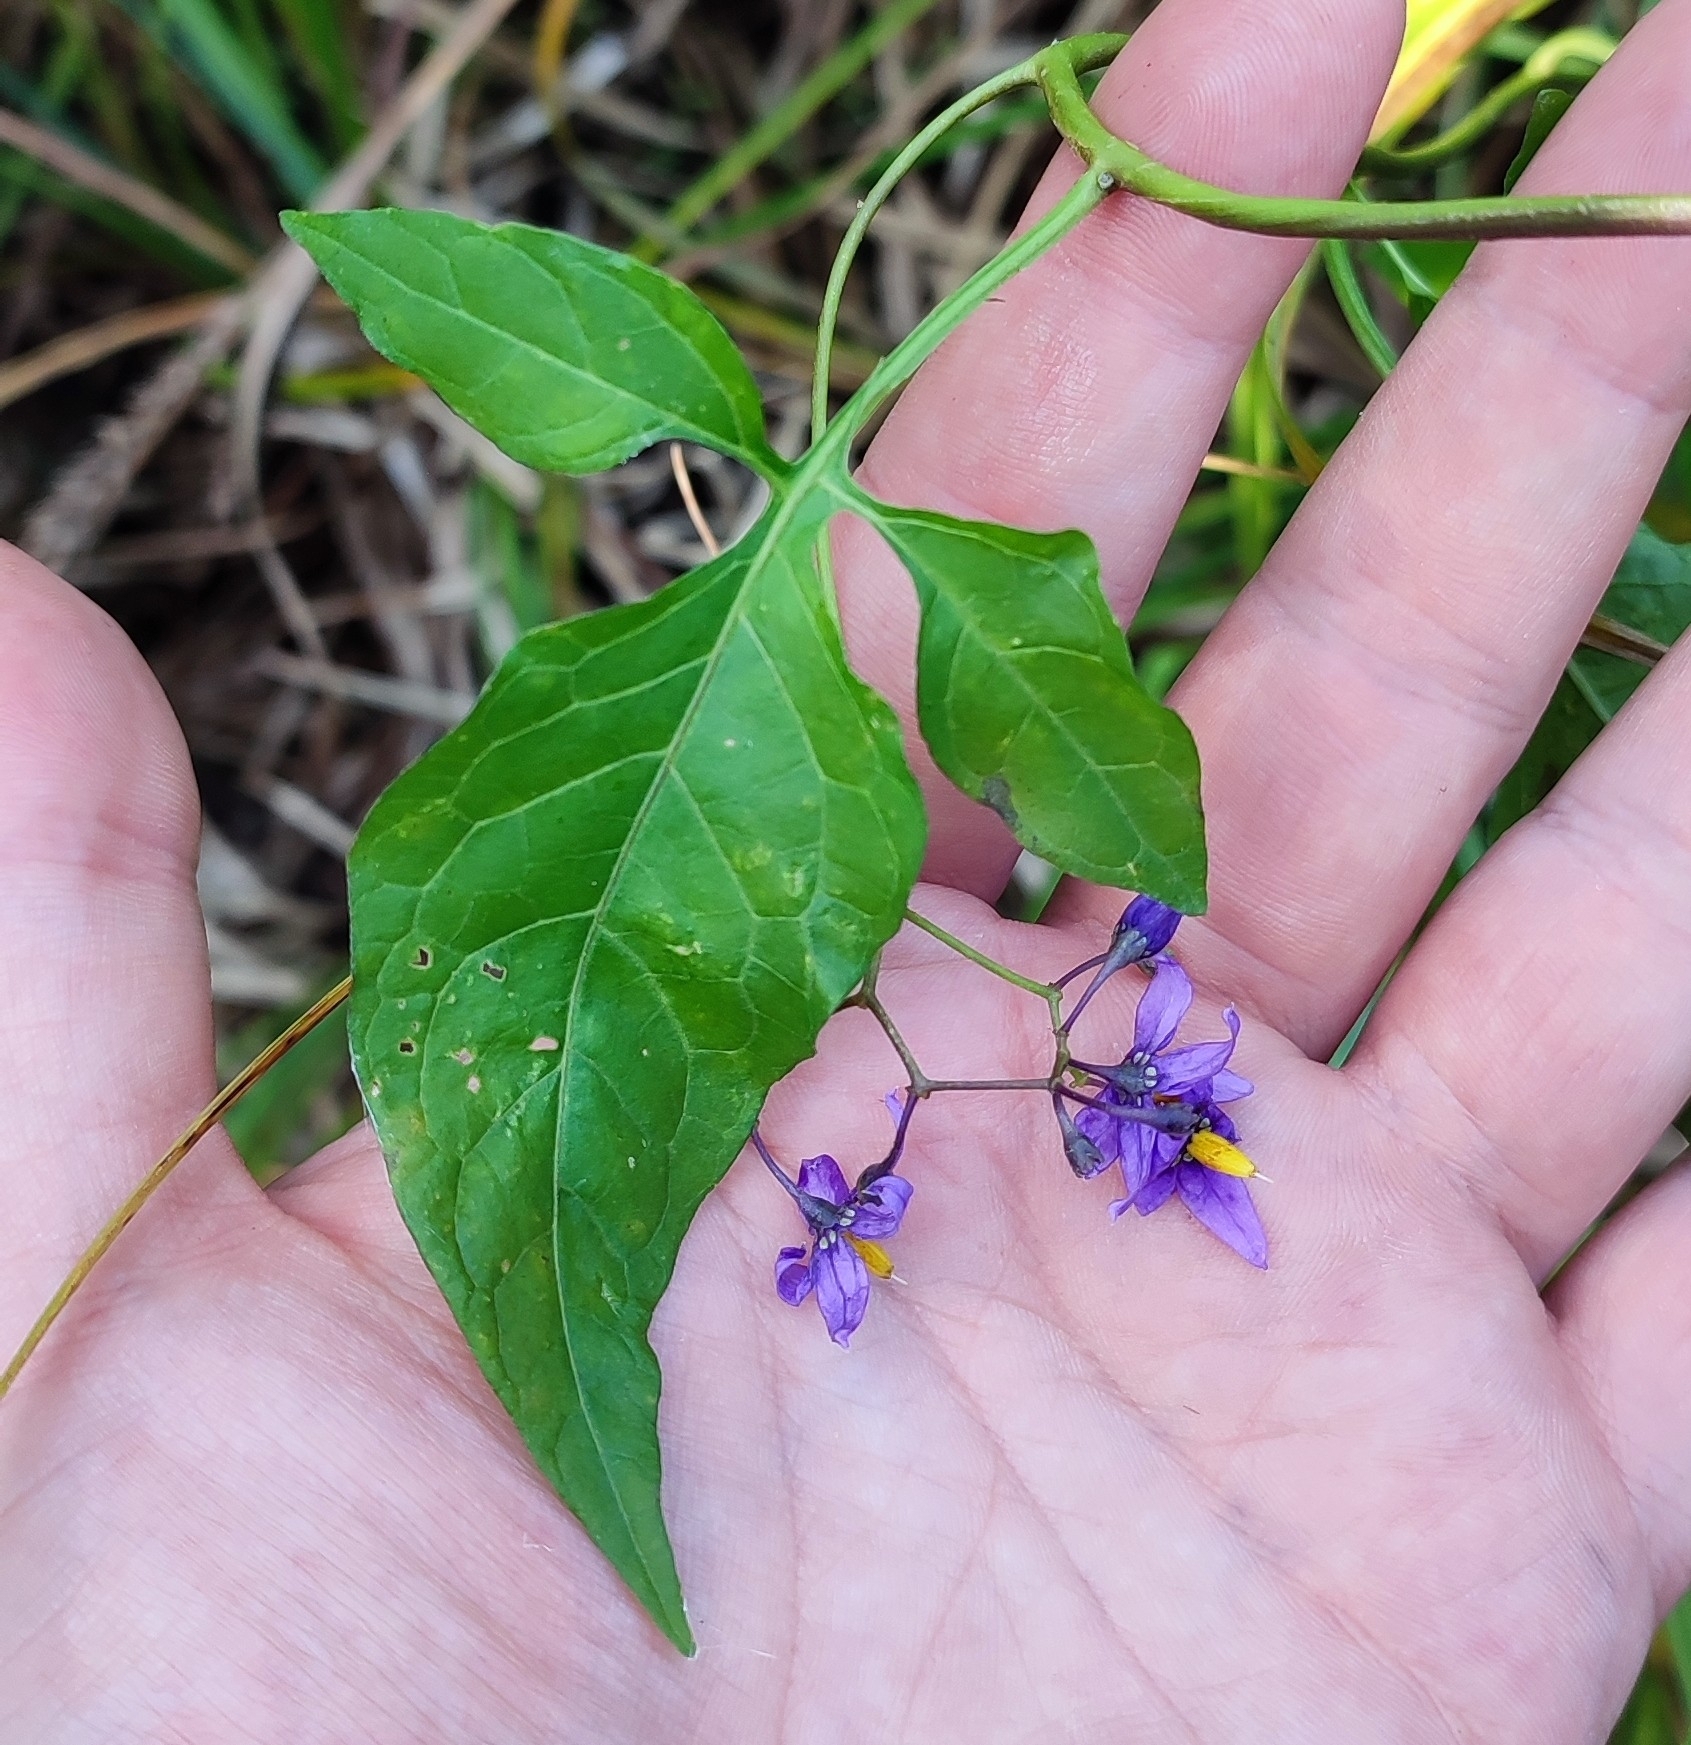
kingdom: Plantae
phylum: Tracheophyta
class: Magnoliopsida
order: Solanales
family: Solanaceae
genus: Solanum
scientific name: Solanum dulcamara
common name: Climbing nightshade
